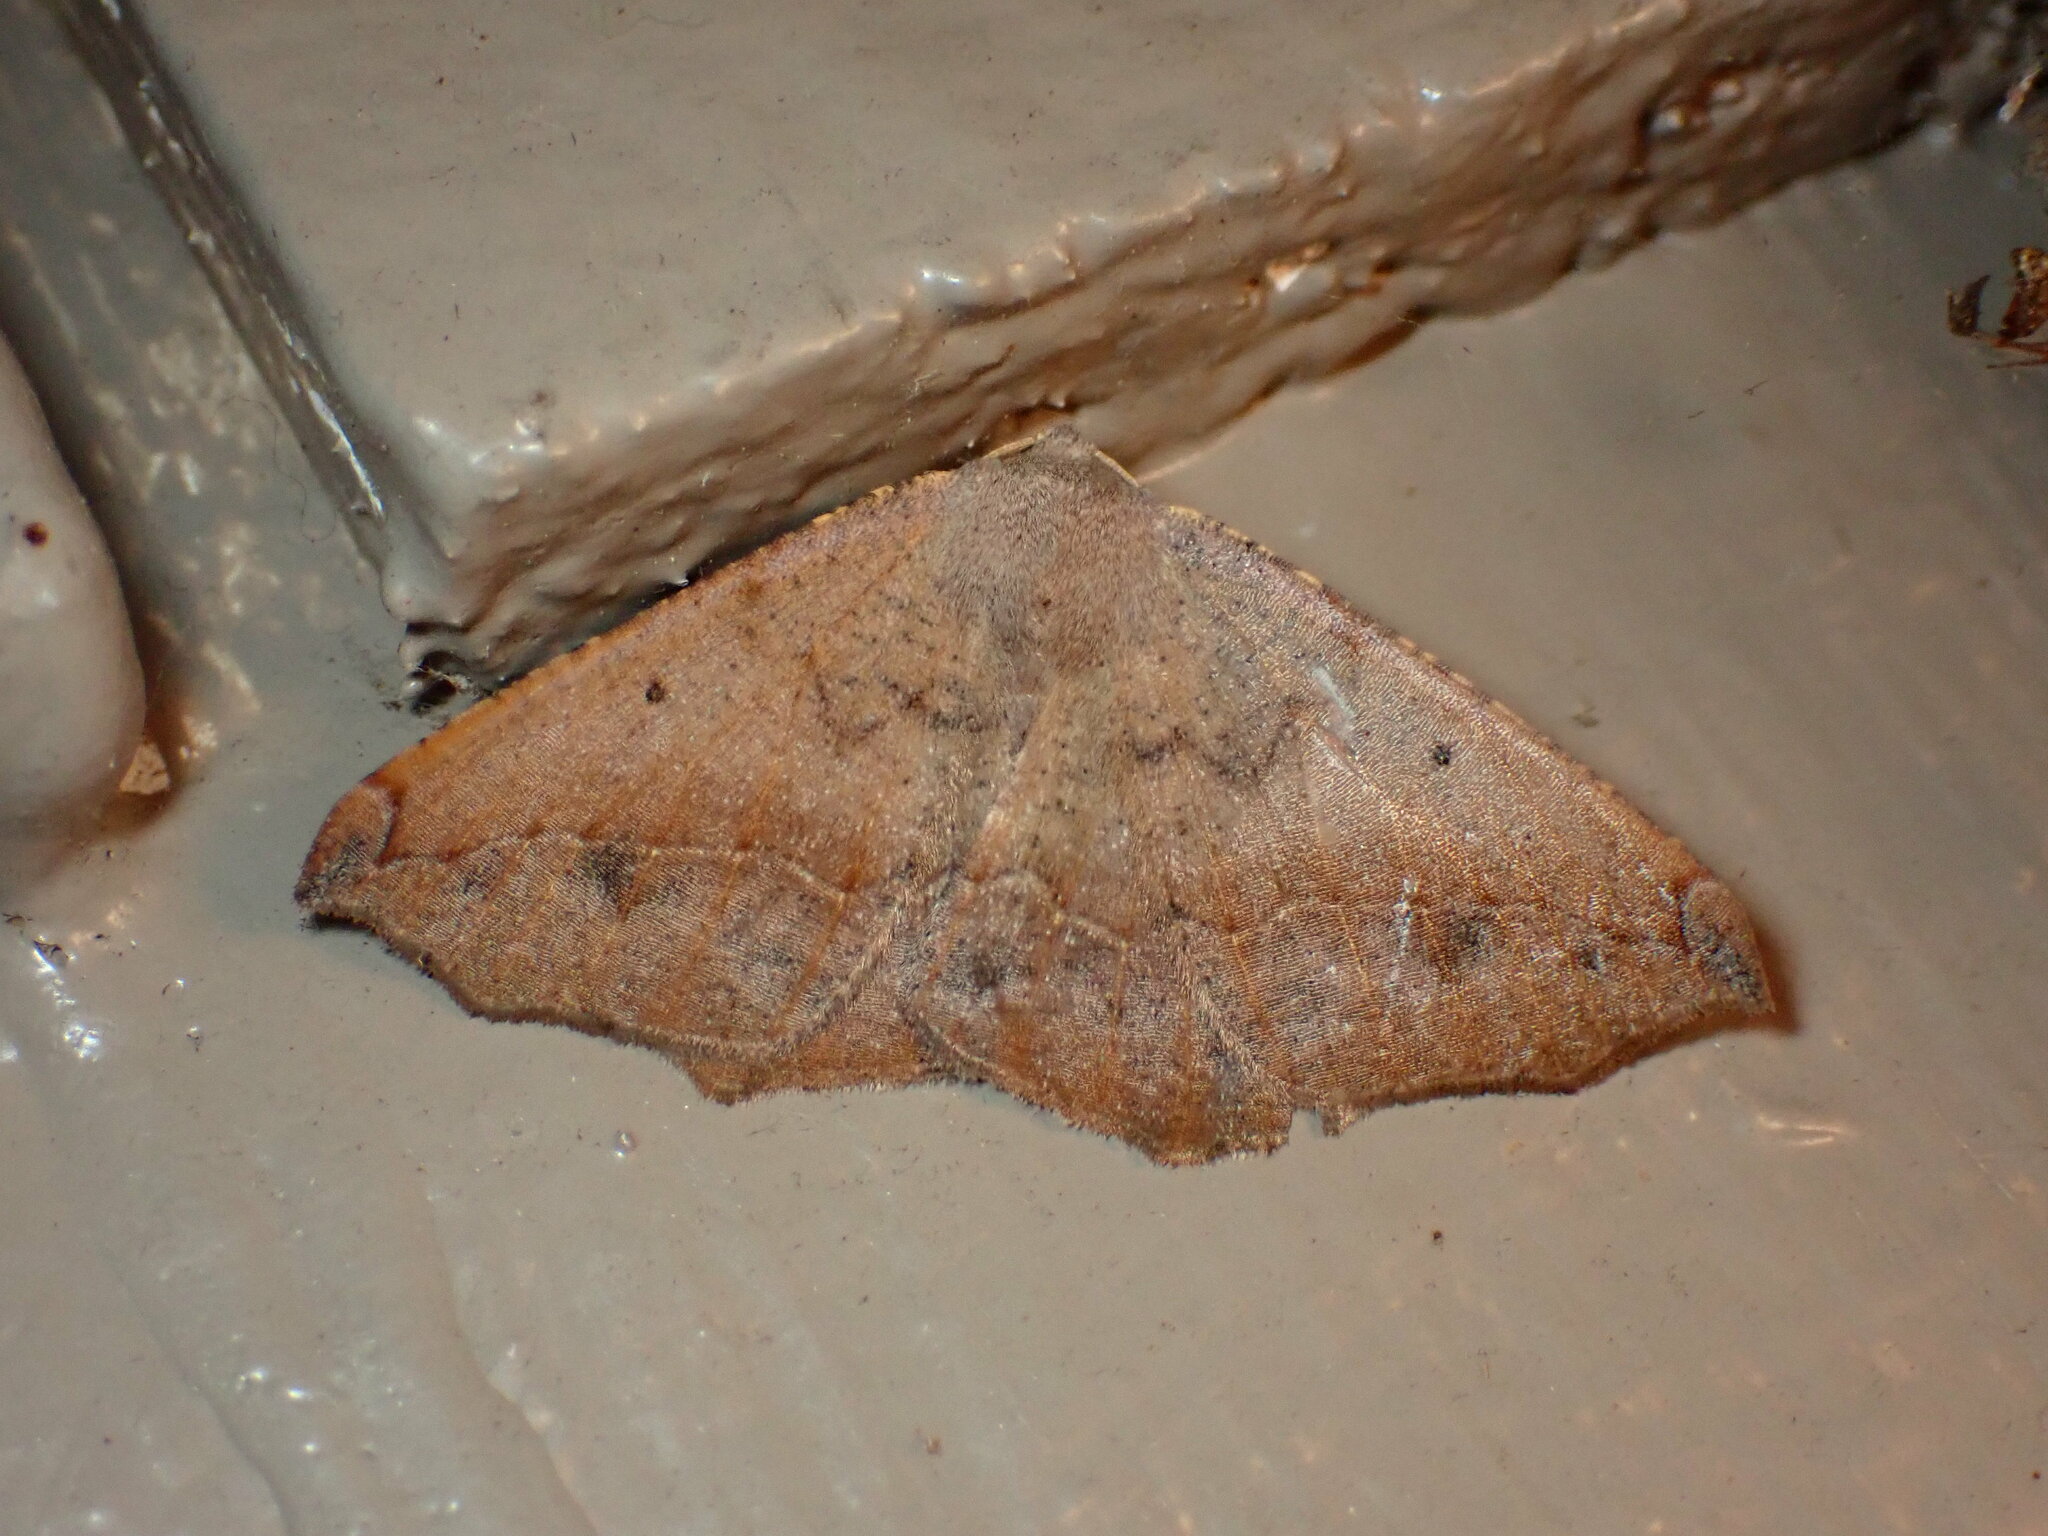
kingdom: Animalia
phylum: Arthropoda
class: Insecta
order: Lepidoptera
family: Geometridae
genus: Prochoerodes
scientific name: Prochoerodes forficaria
